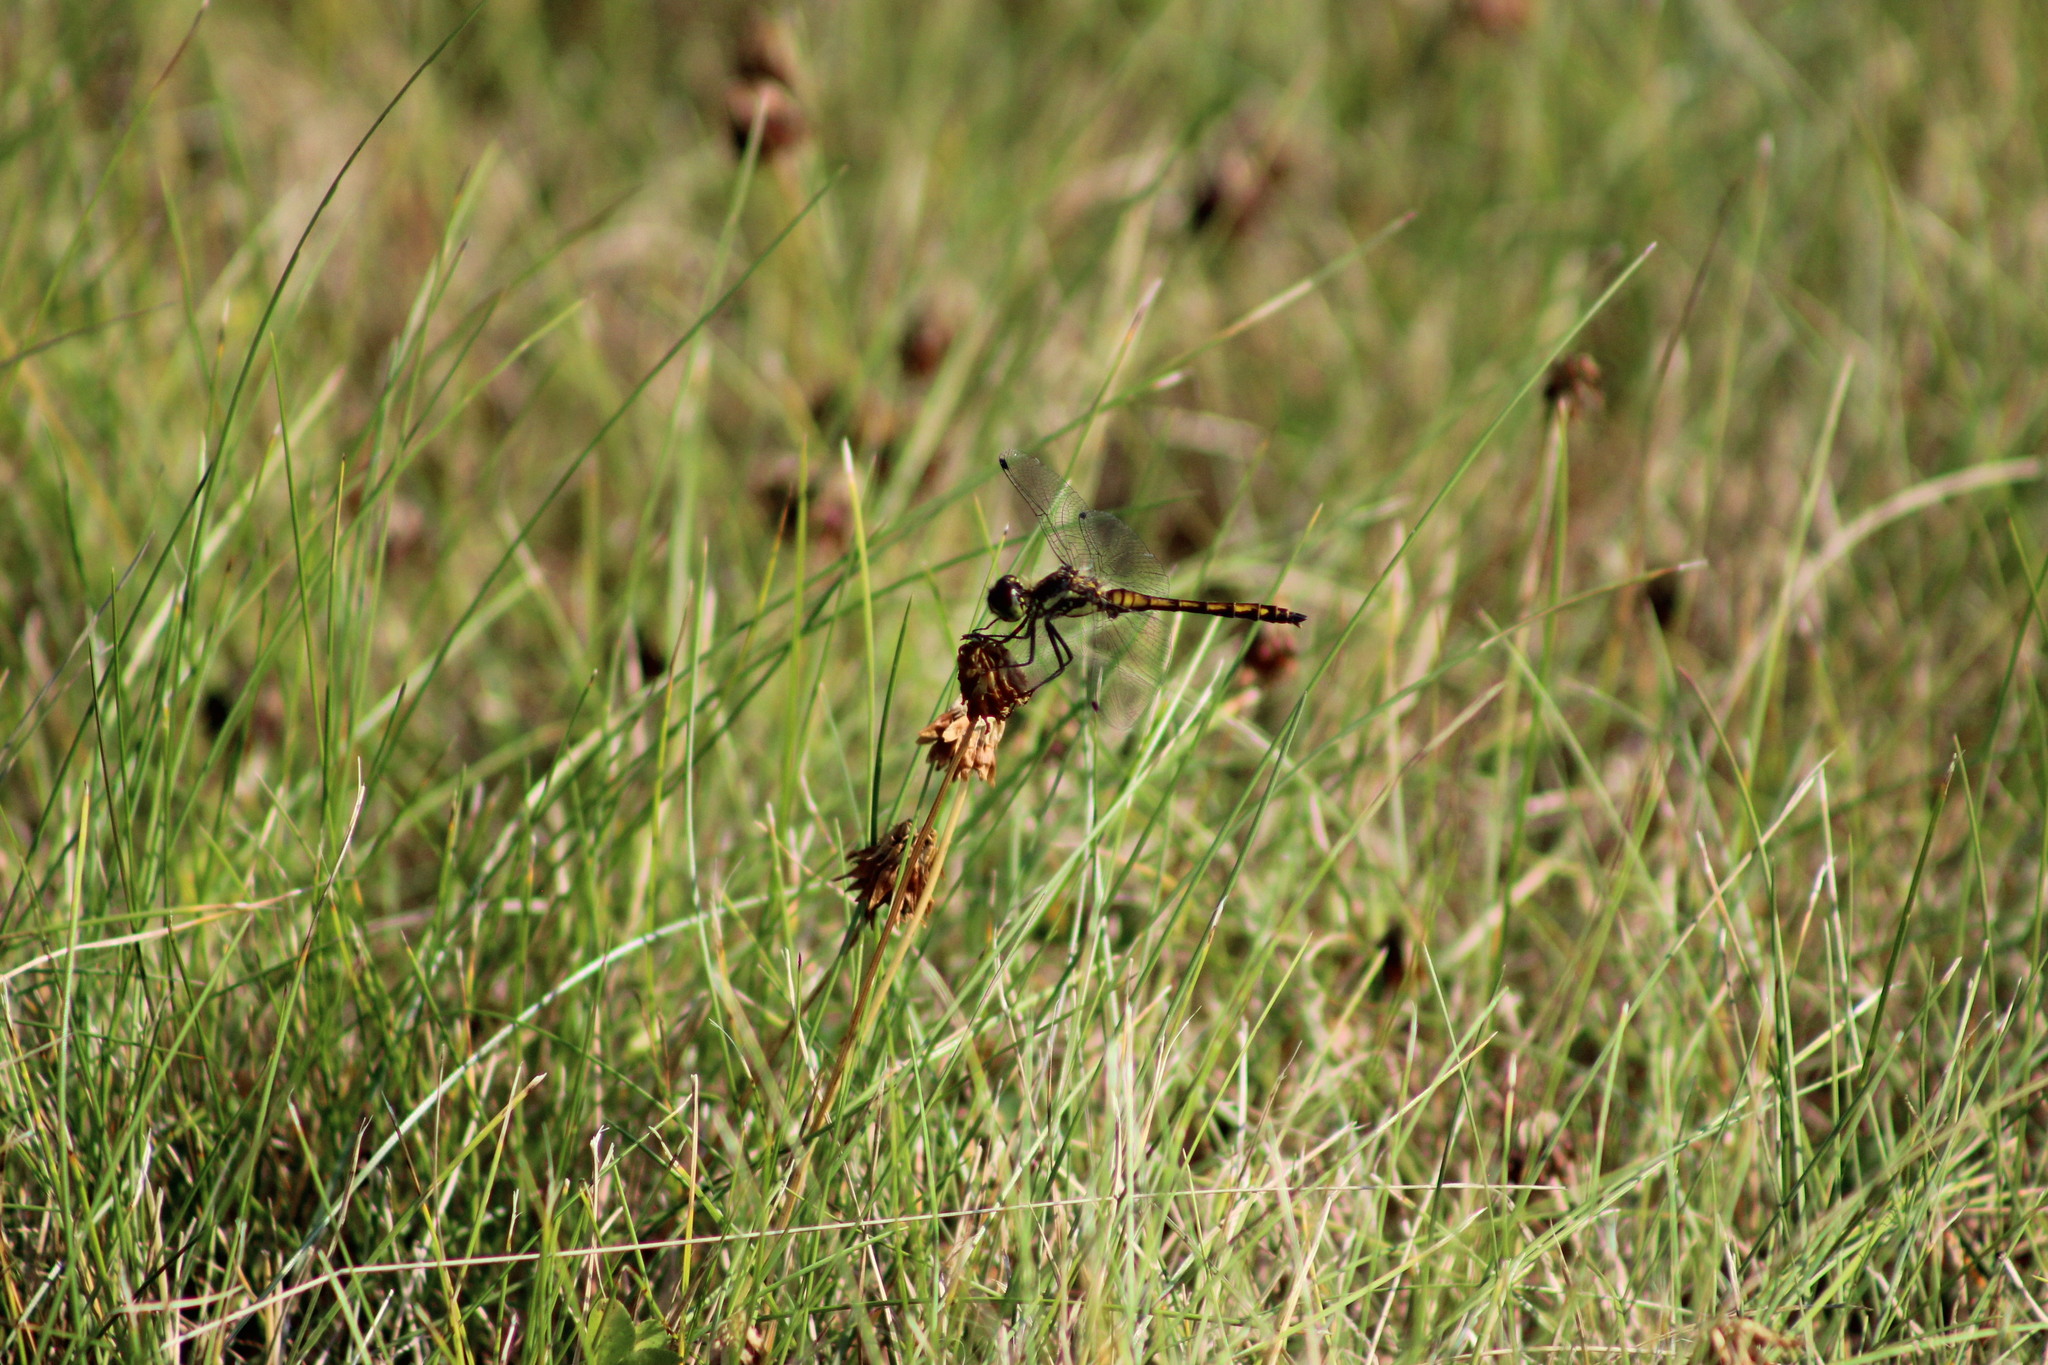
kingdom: Animalia
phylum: Arthropoda
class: Insecta
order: Odonata
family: Libellulidae
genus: Sympetrum
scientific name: Sympetrum danae
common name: Black darter
